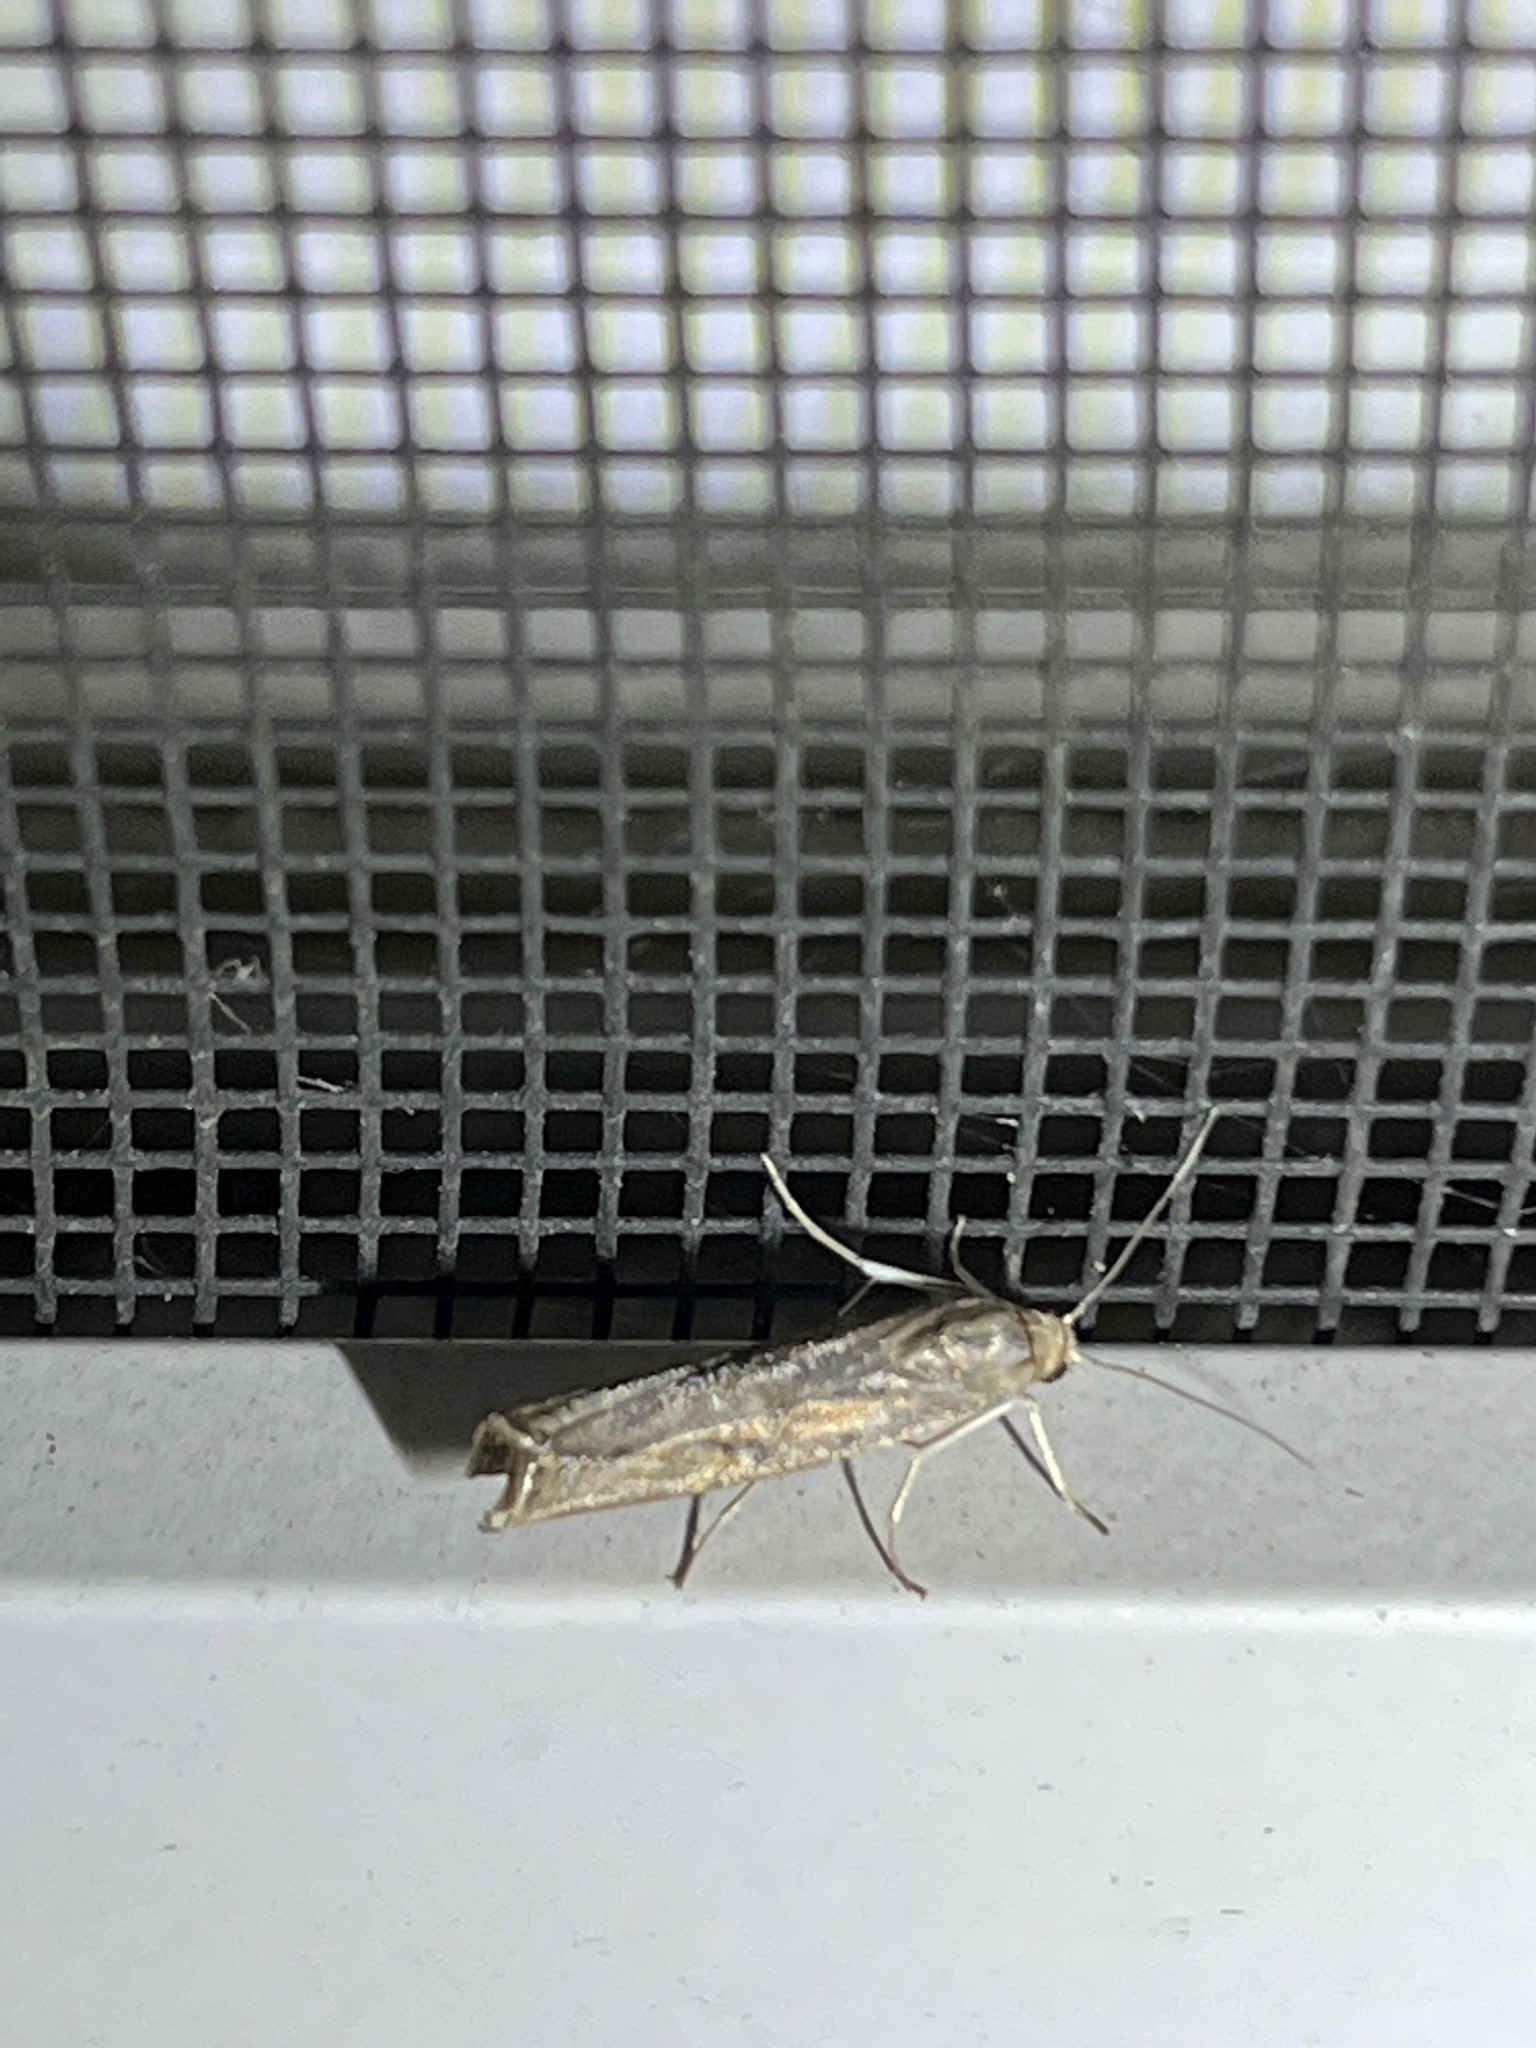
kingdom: Animalia
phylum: Arthropoda
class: Insecta
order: Lepidoptera
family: Crambidae
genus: Parapediasia
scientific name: Parapediasia teterellus
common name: Bluegrass webworm moth
